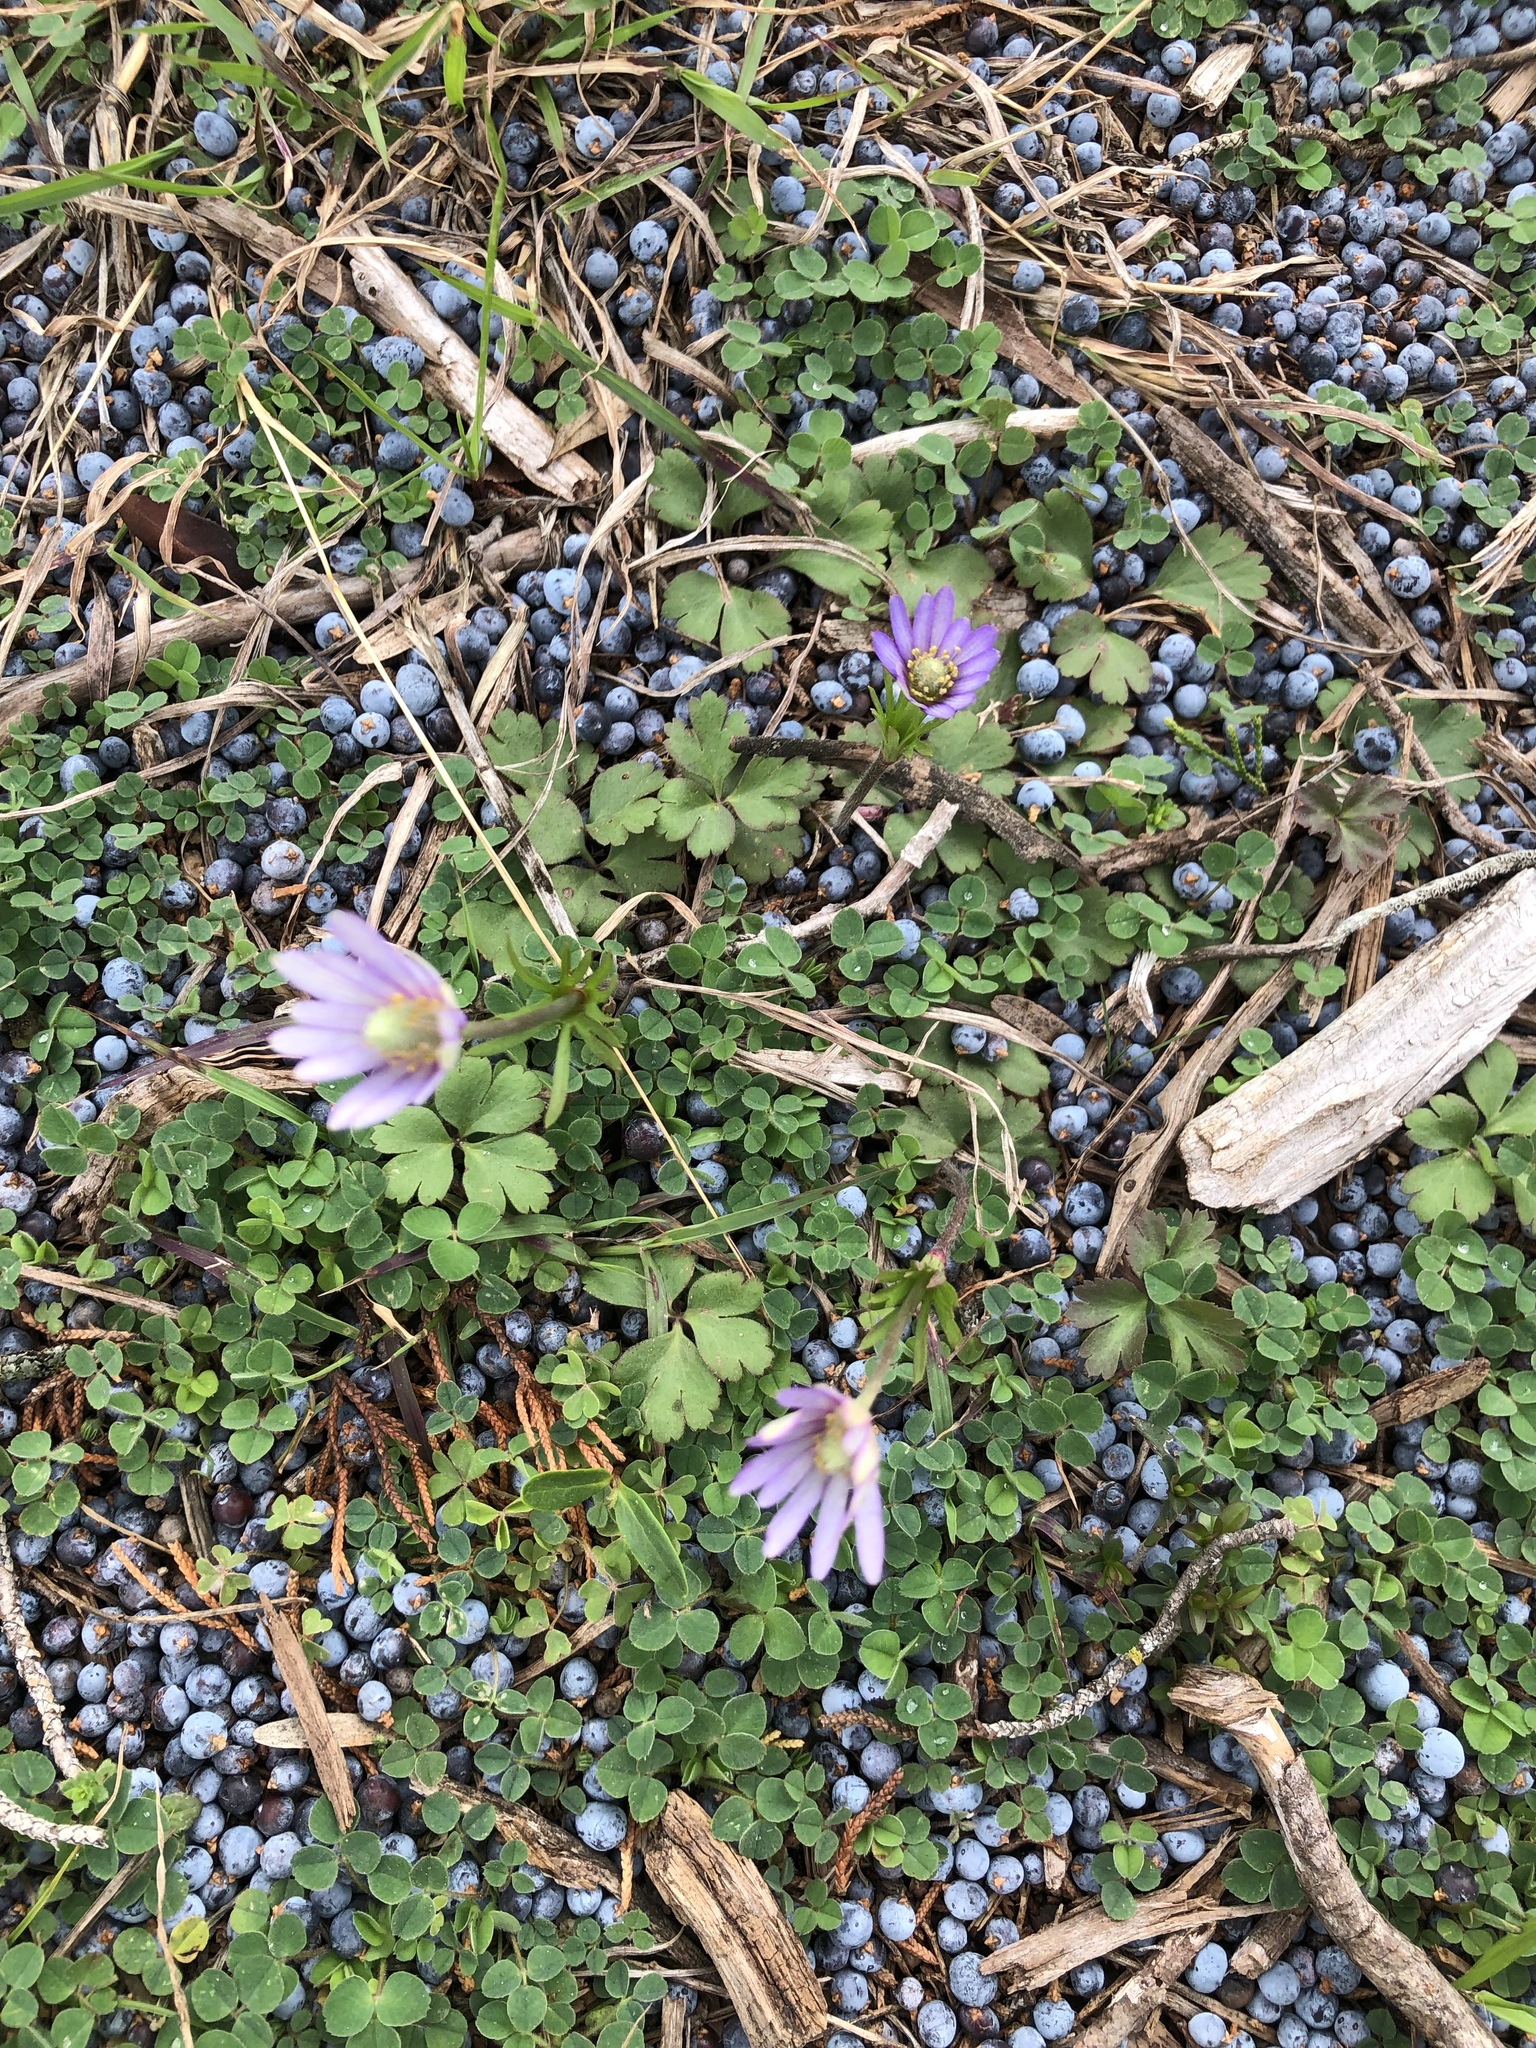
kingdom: Plantae
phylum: Tracheophyta
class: Magnoliopsida
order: Ranunculales
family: Ranunculaceae
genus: Anemone
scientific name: Anemone berlandieri
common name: Ten-petal anemone
